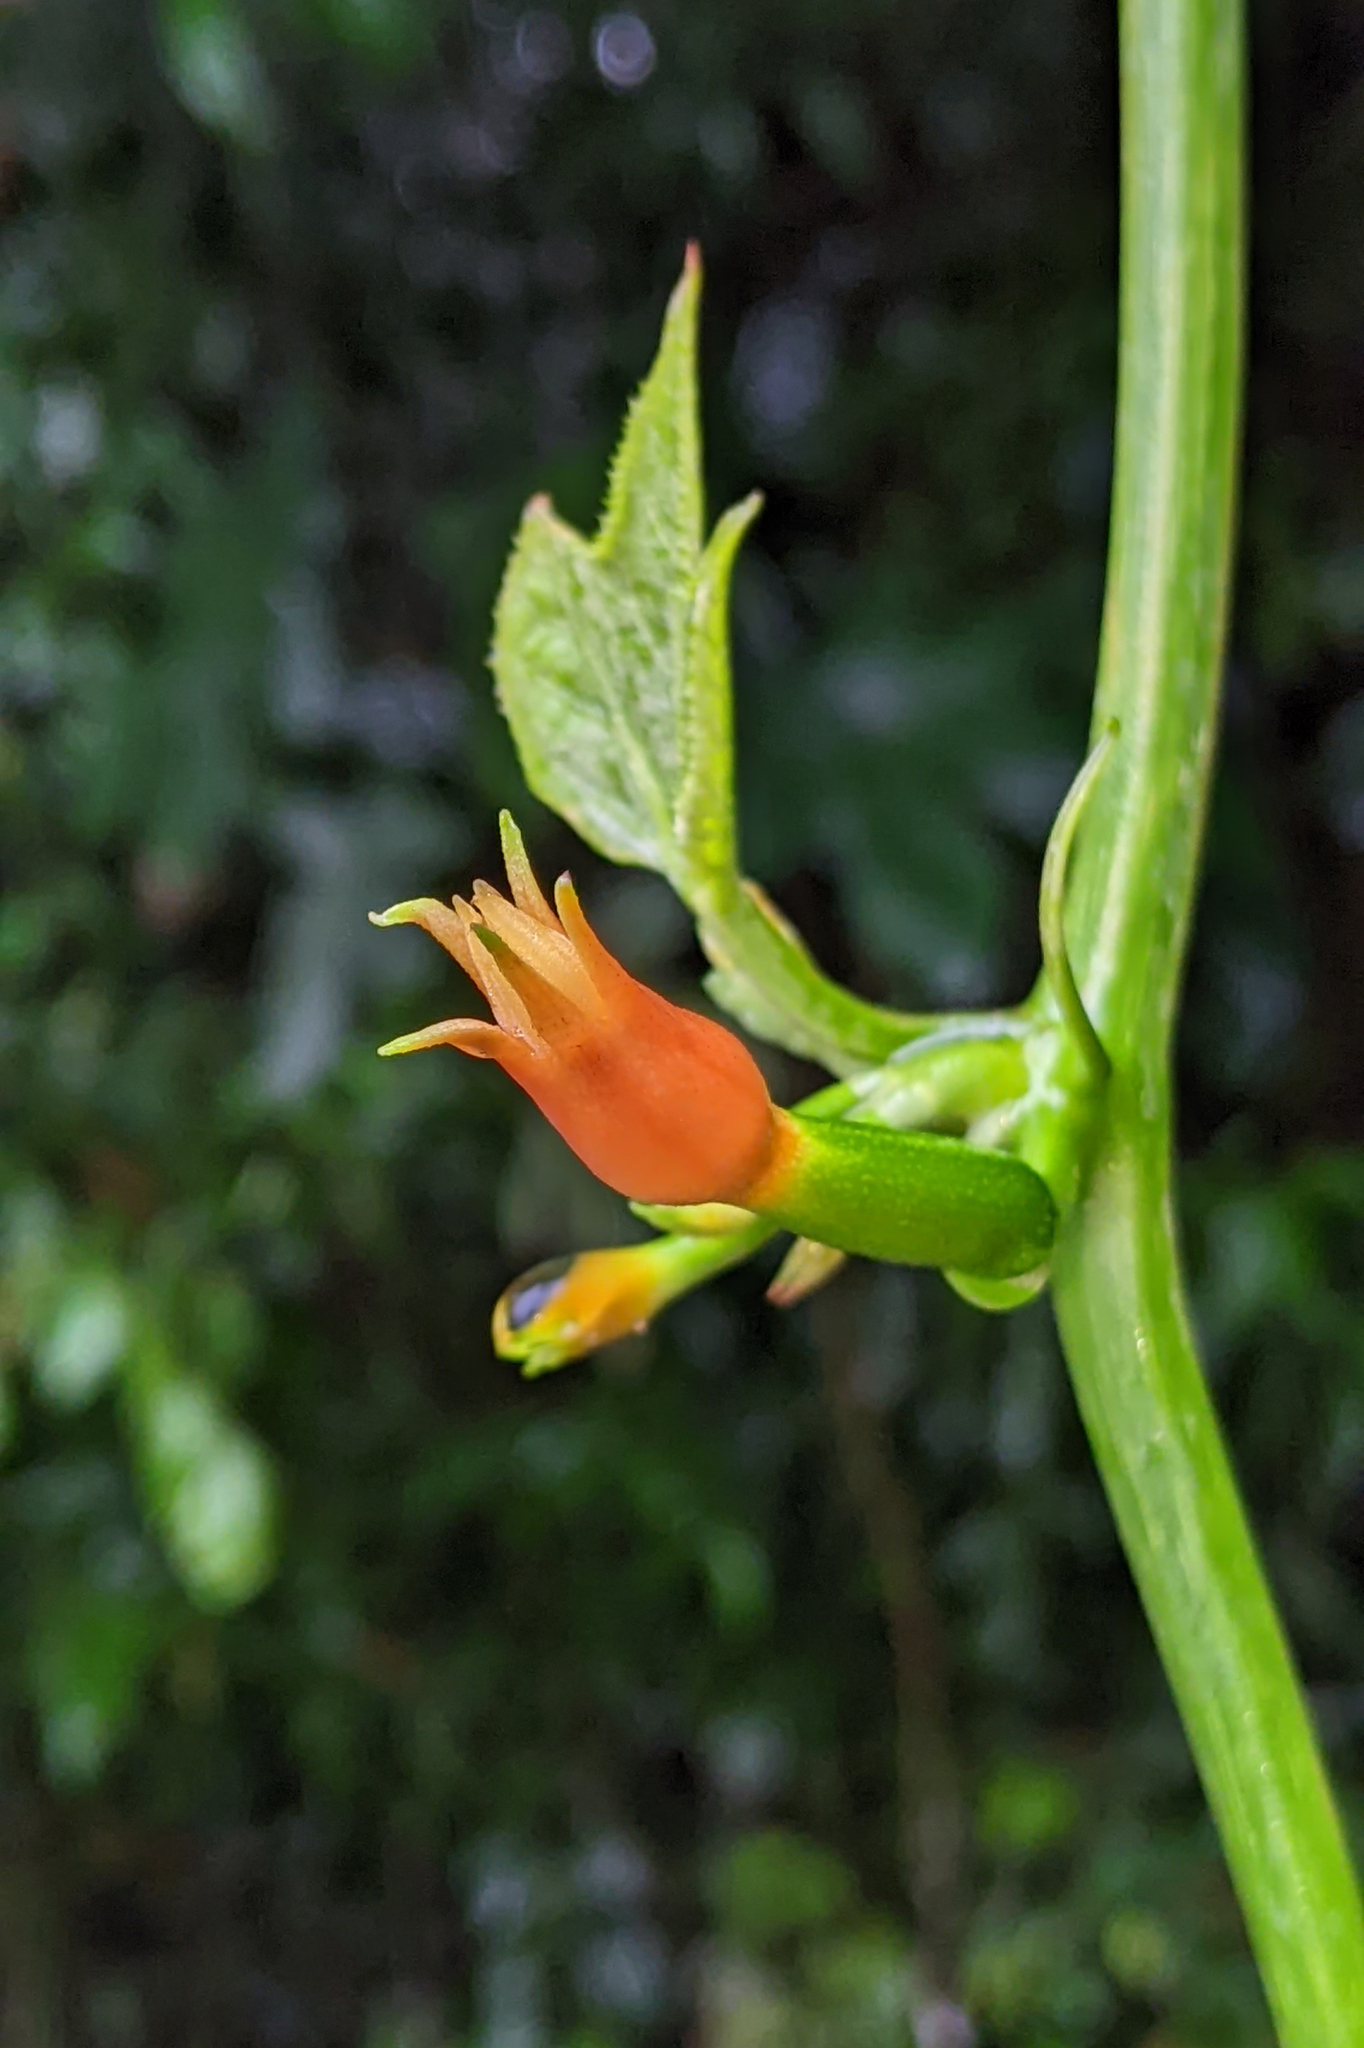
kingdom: Plantae
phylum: Tracheophyta
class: Magnoliopsida
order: Cucurbitales
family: Cucurbitaceae
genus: Gurania
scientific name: Gurania lobata
